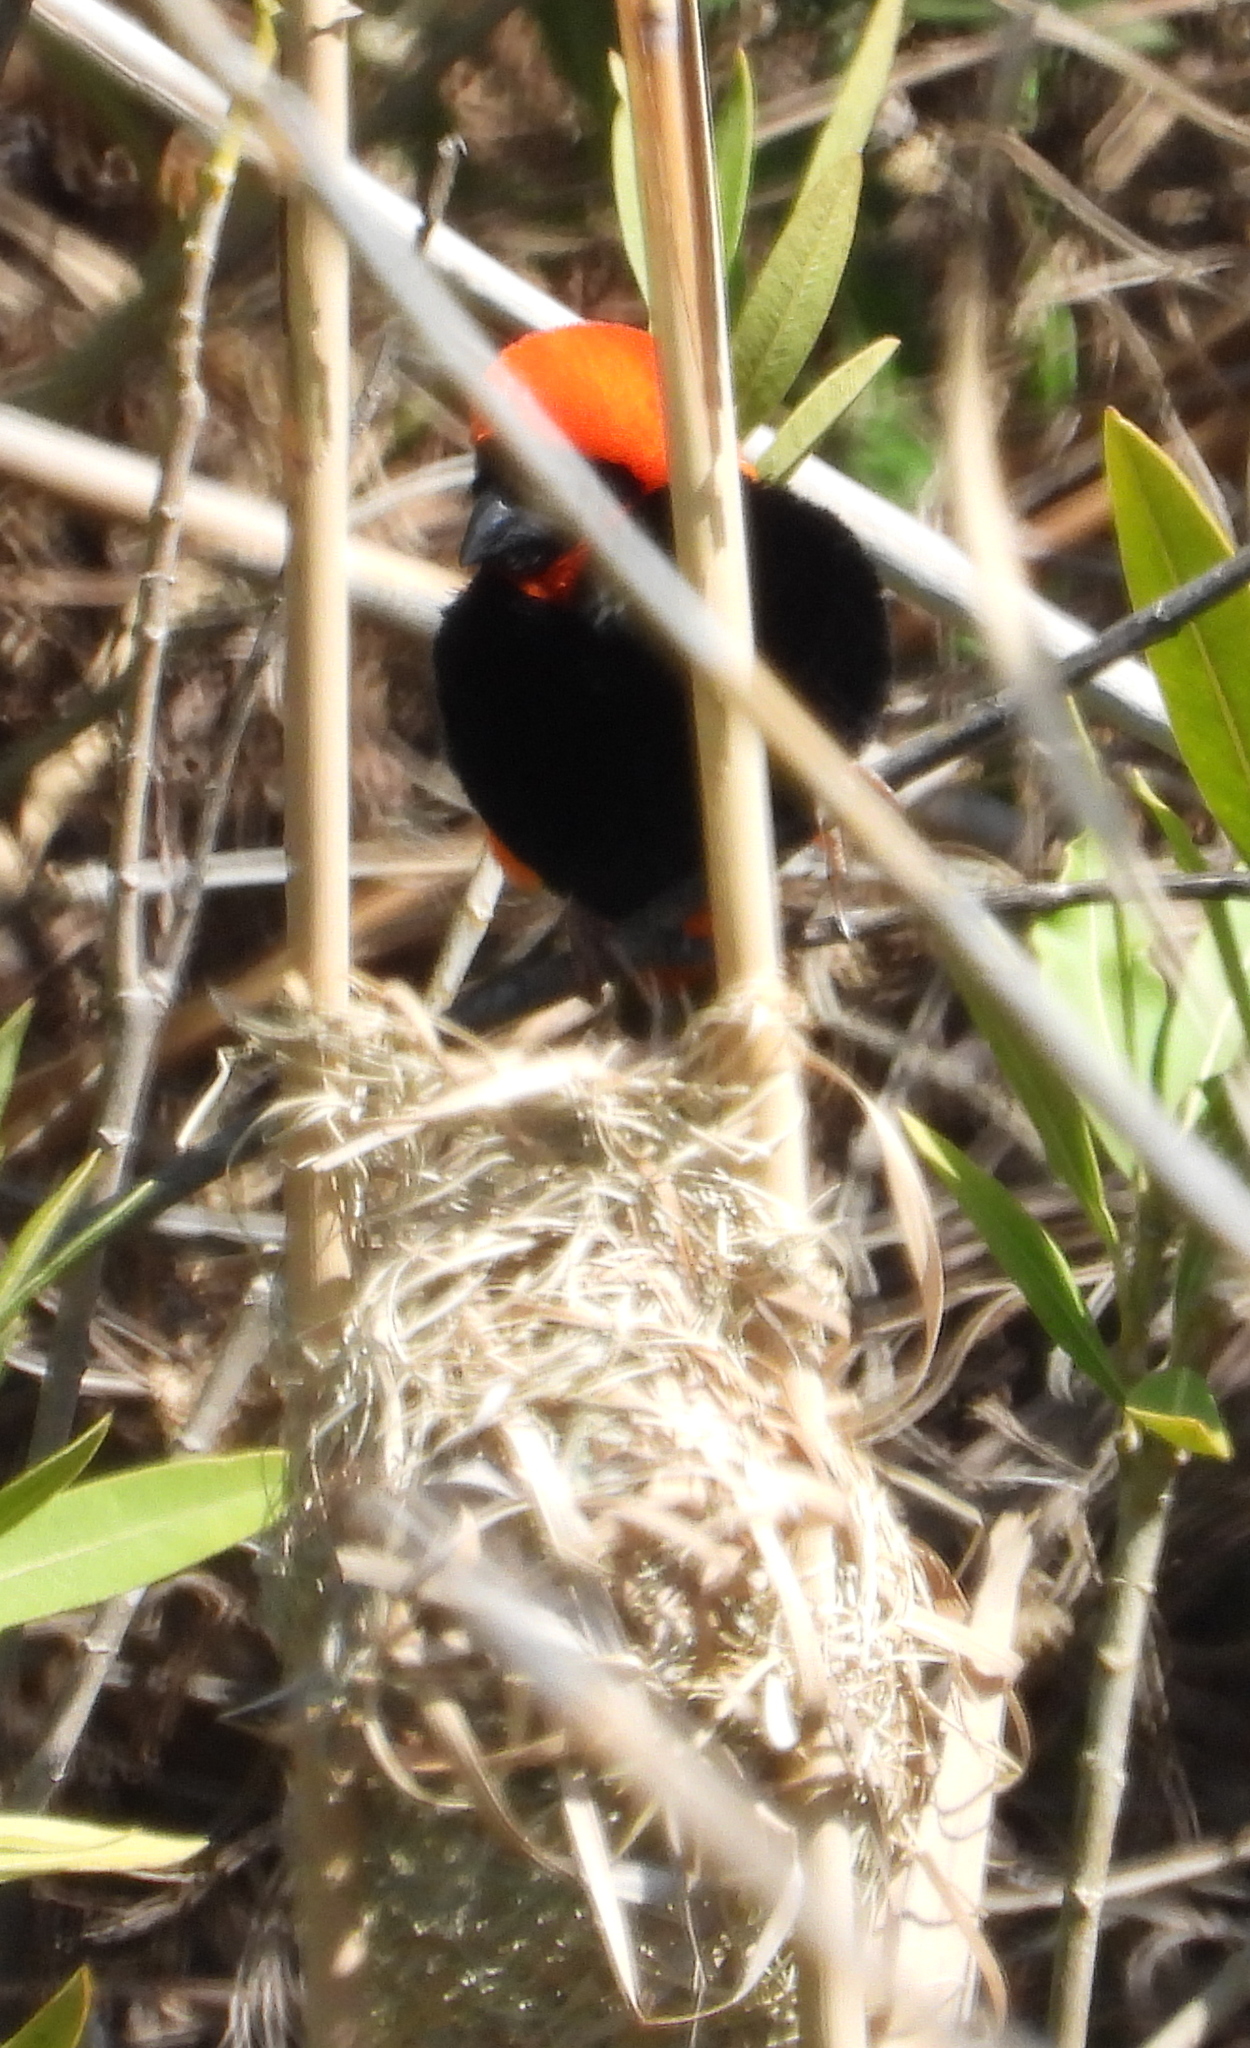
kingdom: Animalia
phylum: Chordata
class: Aves
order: Passeriformes
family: Ploceidae
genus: Euplectes
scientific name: Euplectes orix
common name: Southern red bishop
